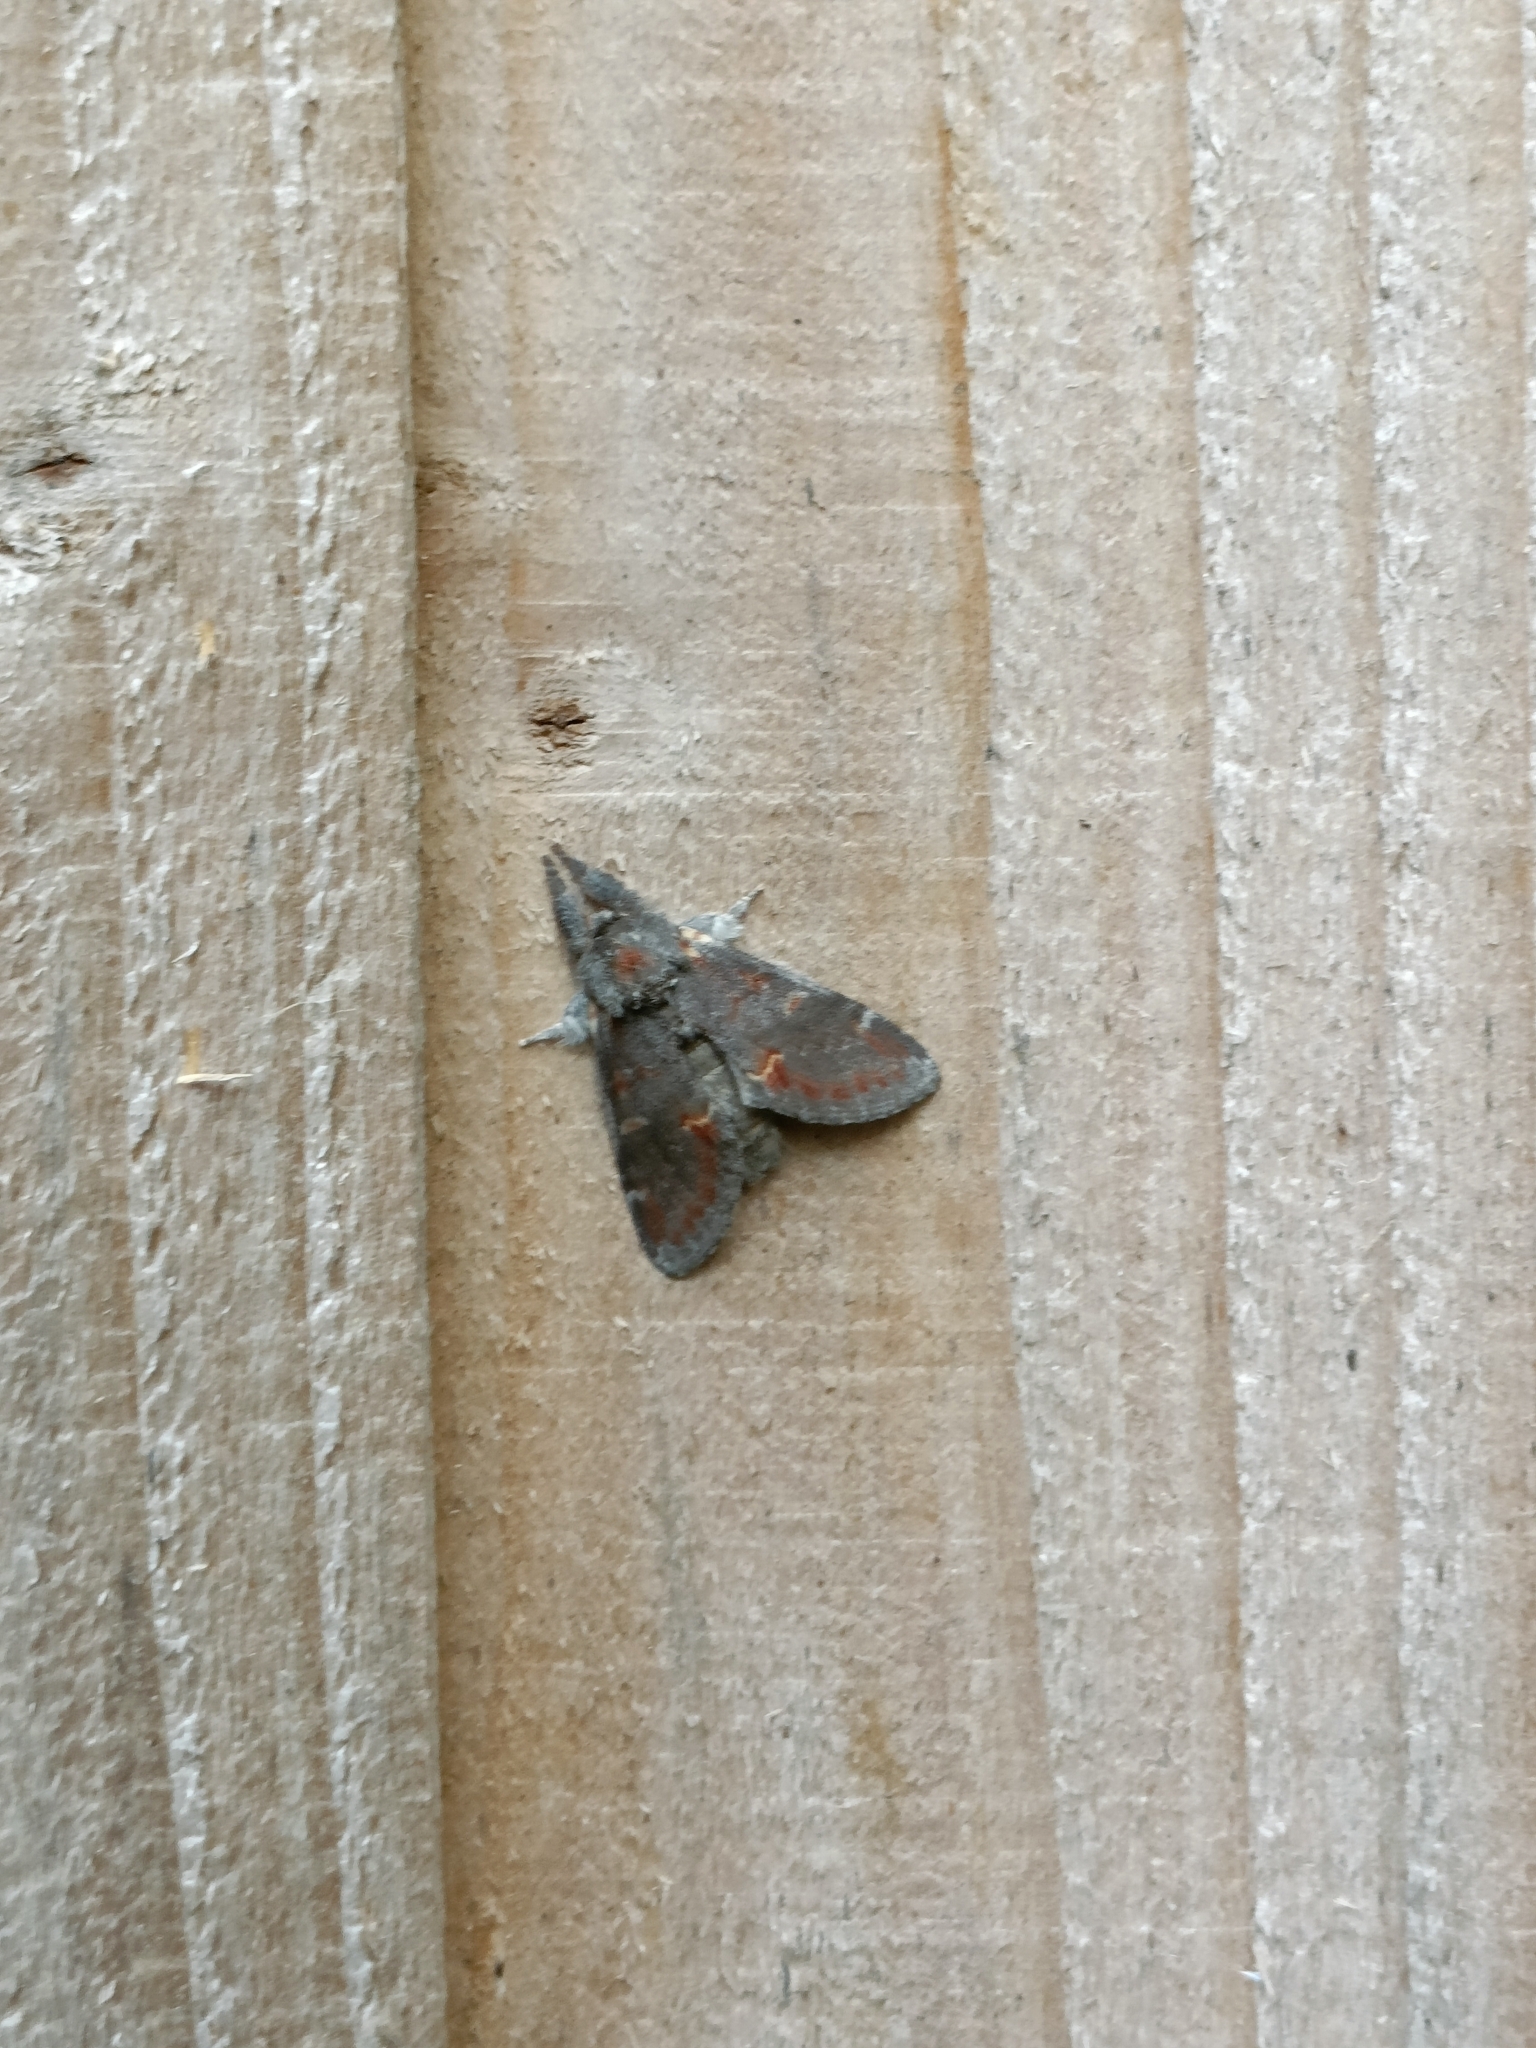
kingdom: Animalia
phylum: Arthropoda
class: Insecta
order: Lepidoptera
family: Notodontidae
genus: Notodonta
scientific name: Notodonta dromedarius
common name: Iron prominent
